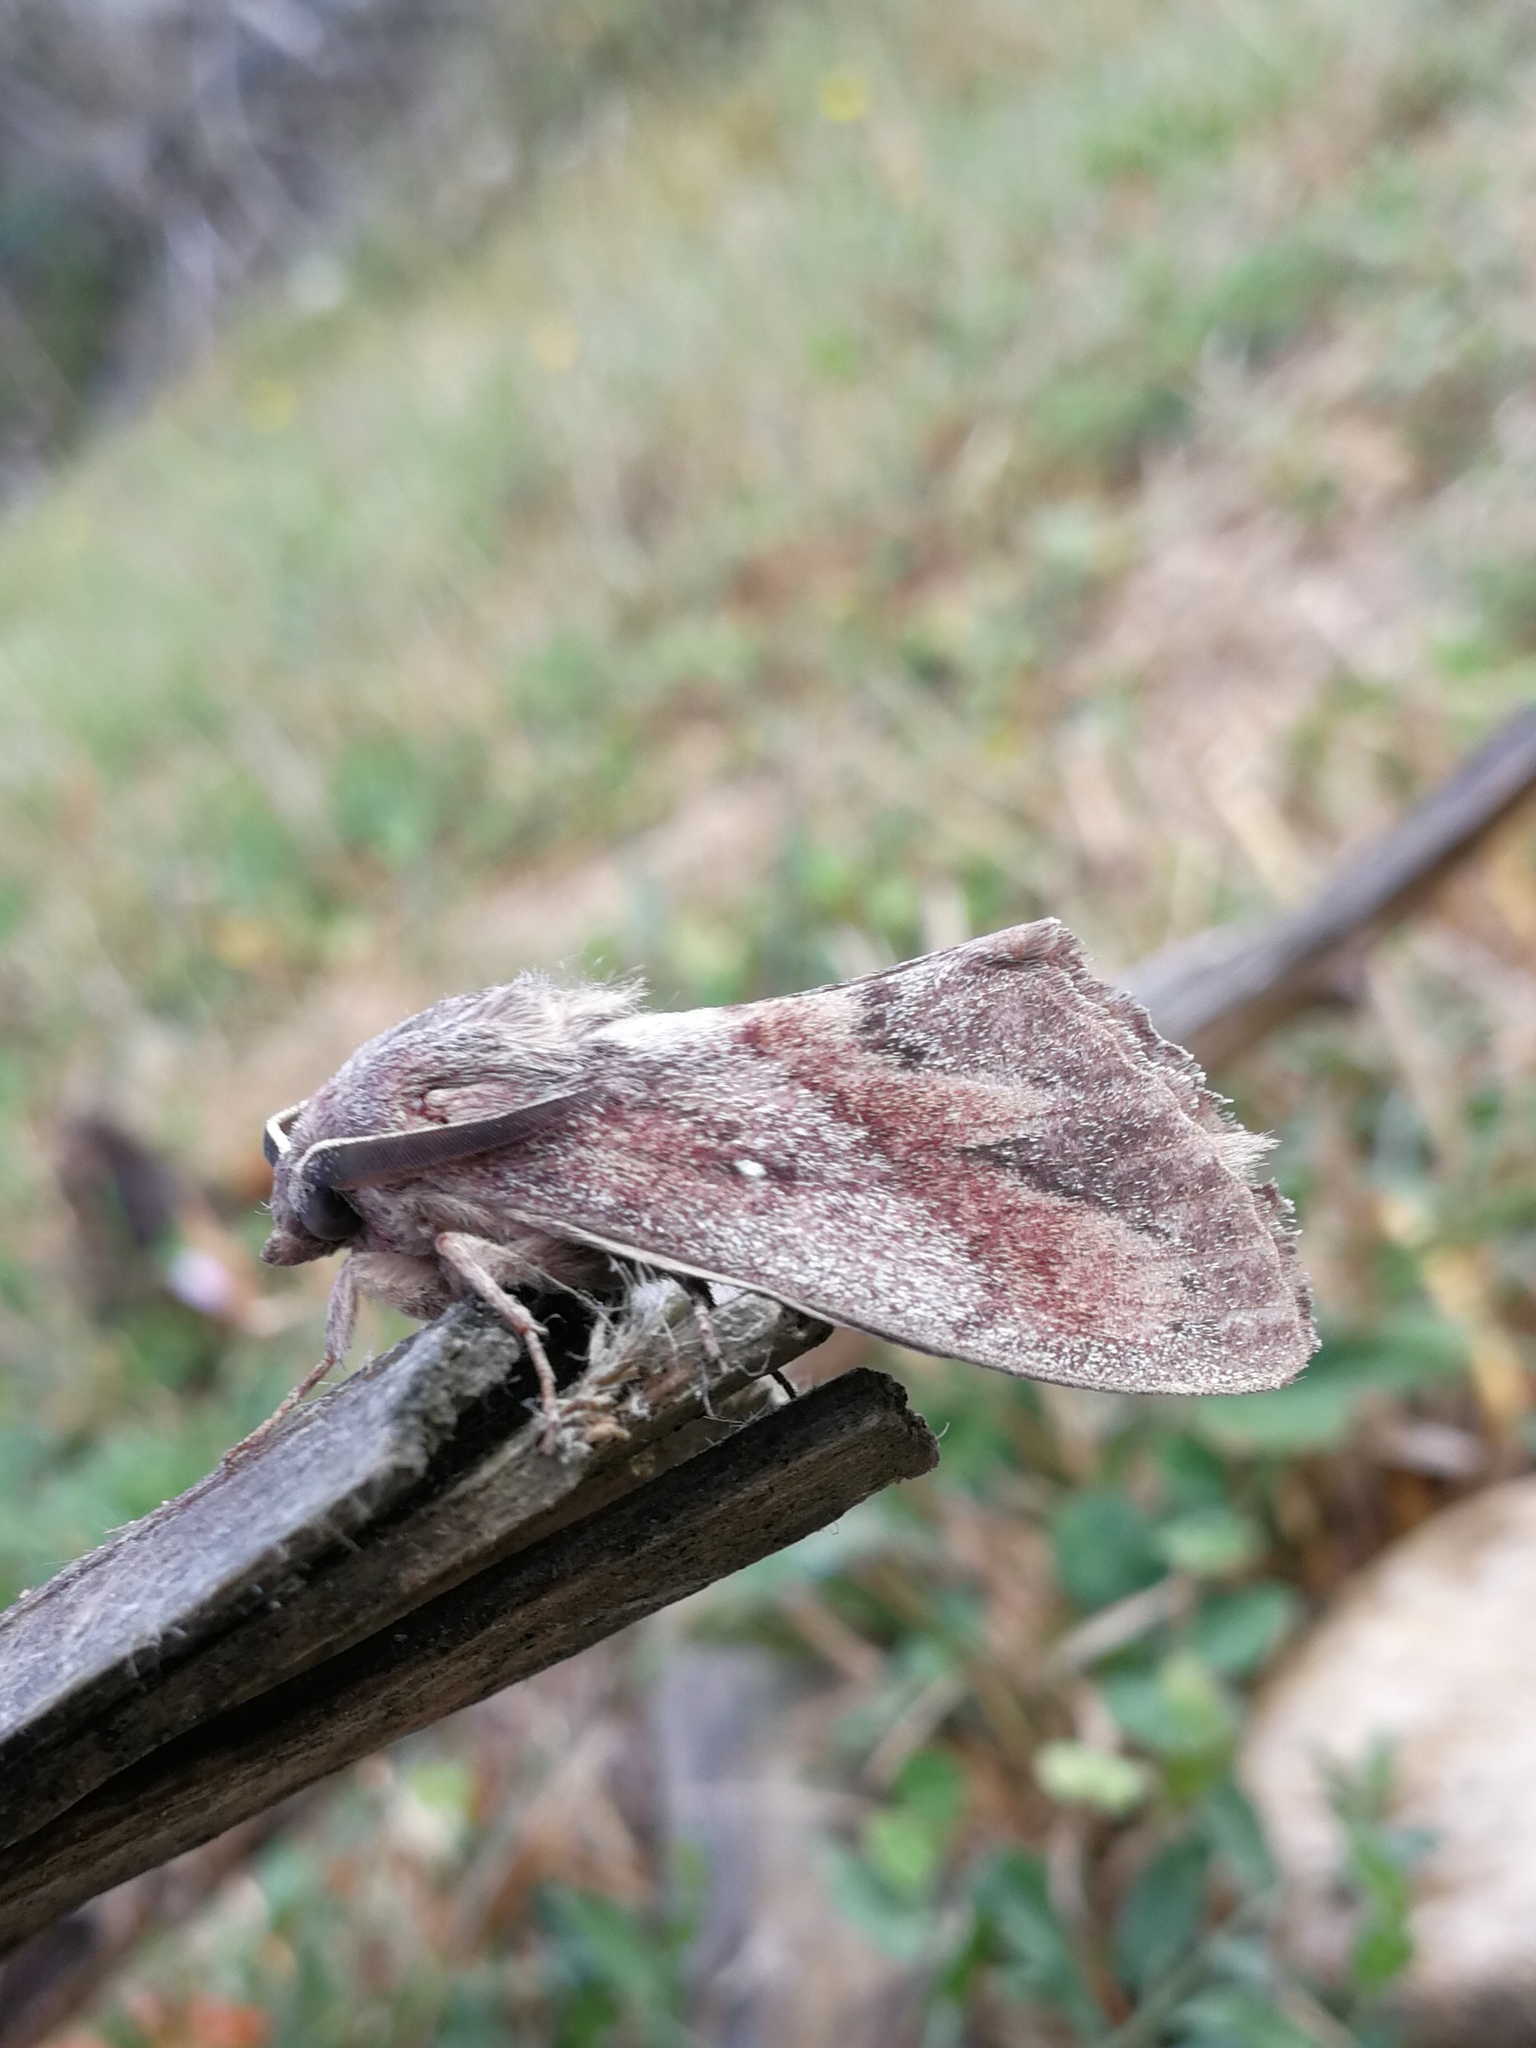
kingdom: Animalia
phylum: Arthropoda
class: Insecta
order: Lepidoptera
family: Lasiocampidae
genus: Dendrolimus
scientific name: Dendrolimus pini
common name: Pine-tree lappet
